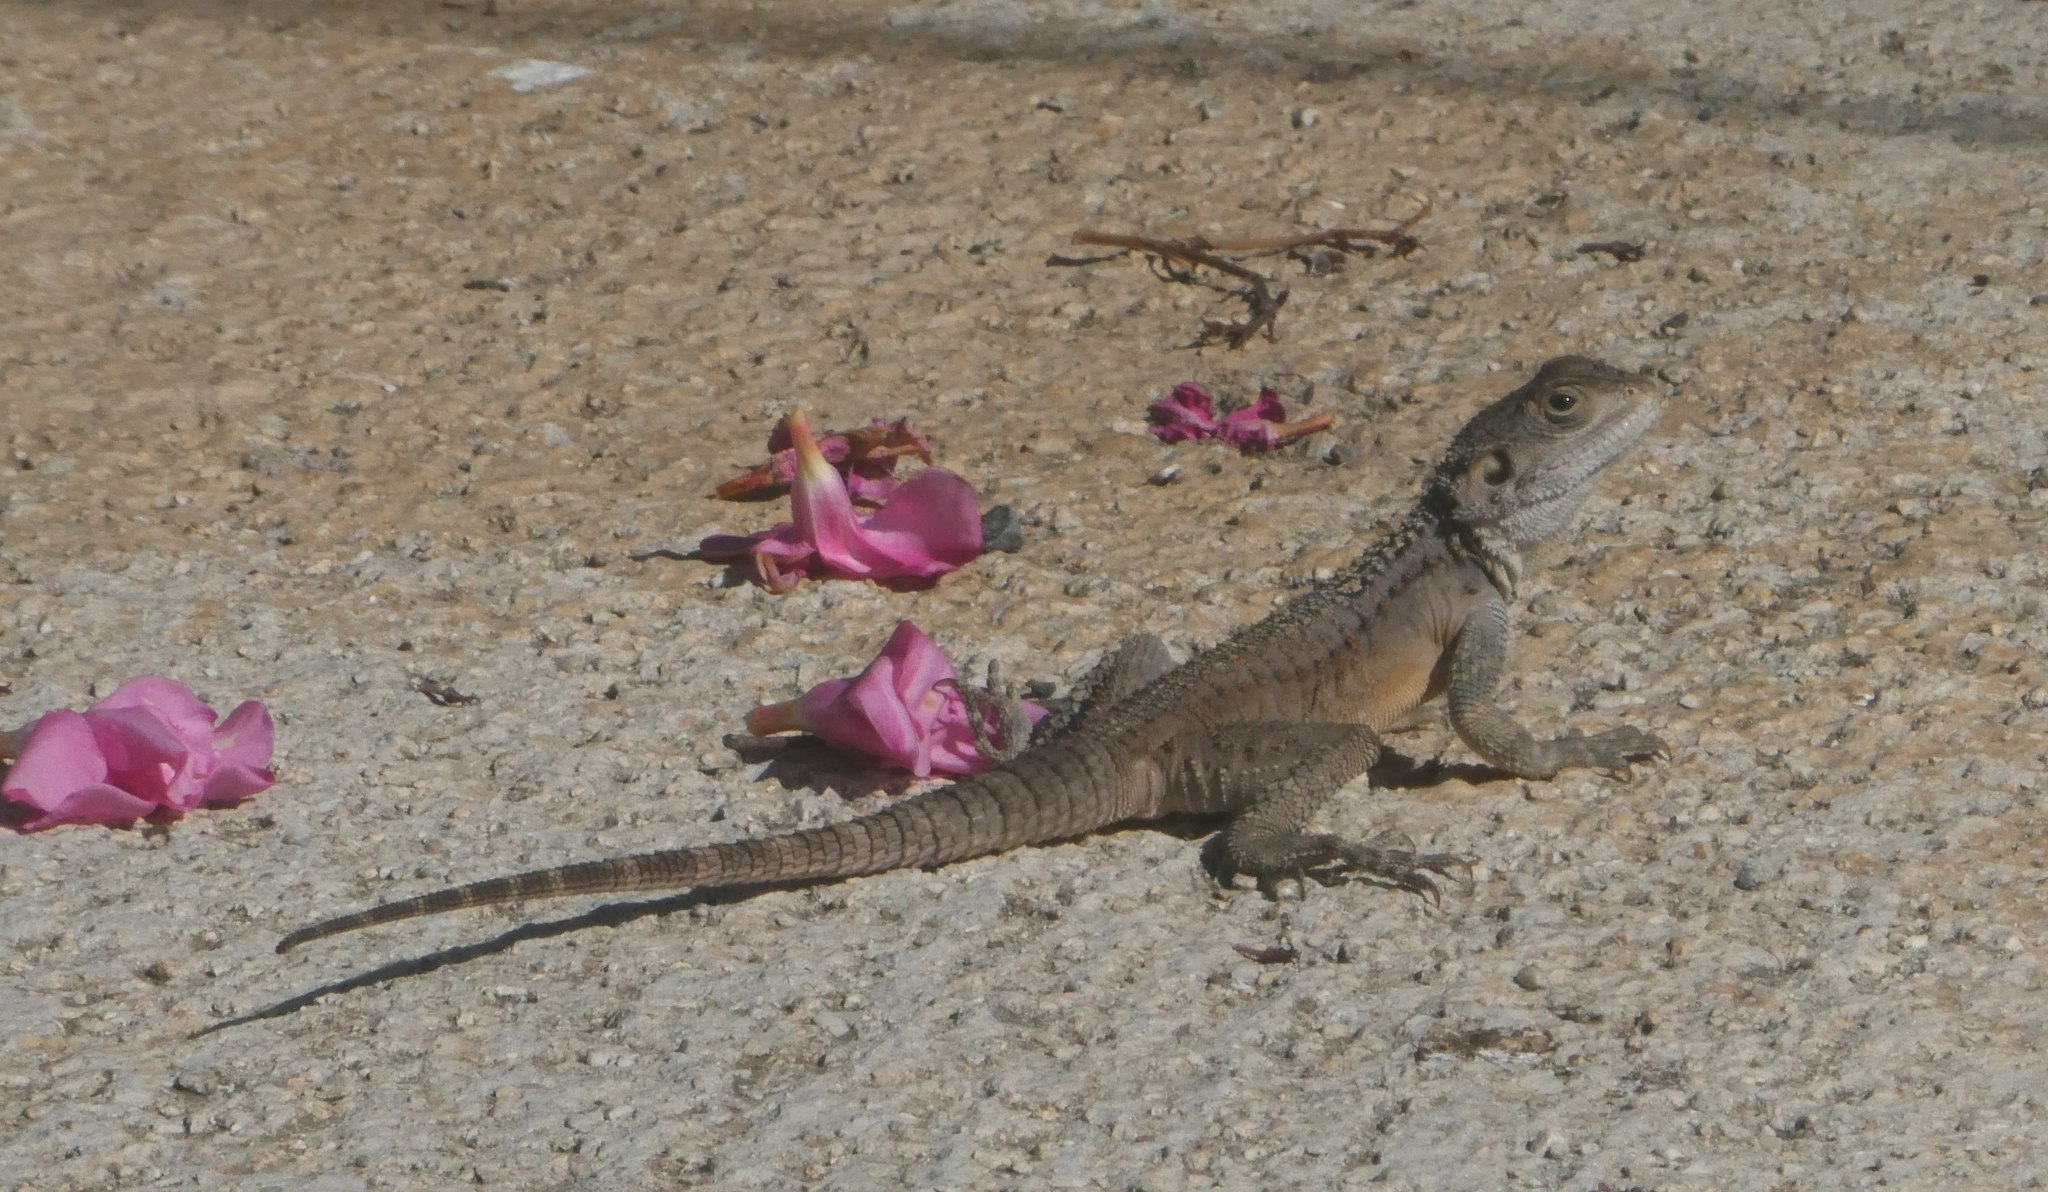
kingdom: Animalia
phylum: Chordata
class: Squamata
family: Agamidae
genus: Laudakia
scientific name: Laudakia
